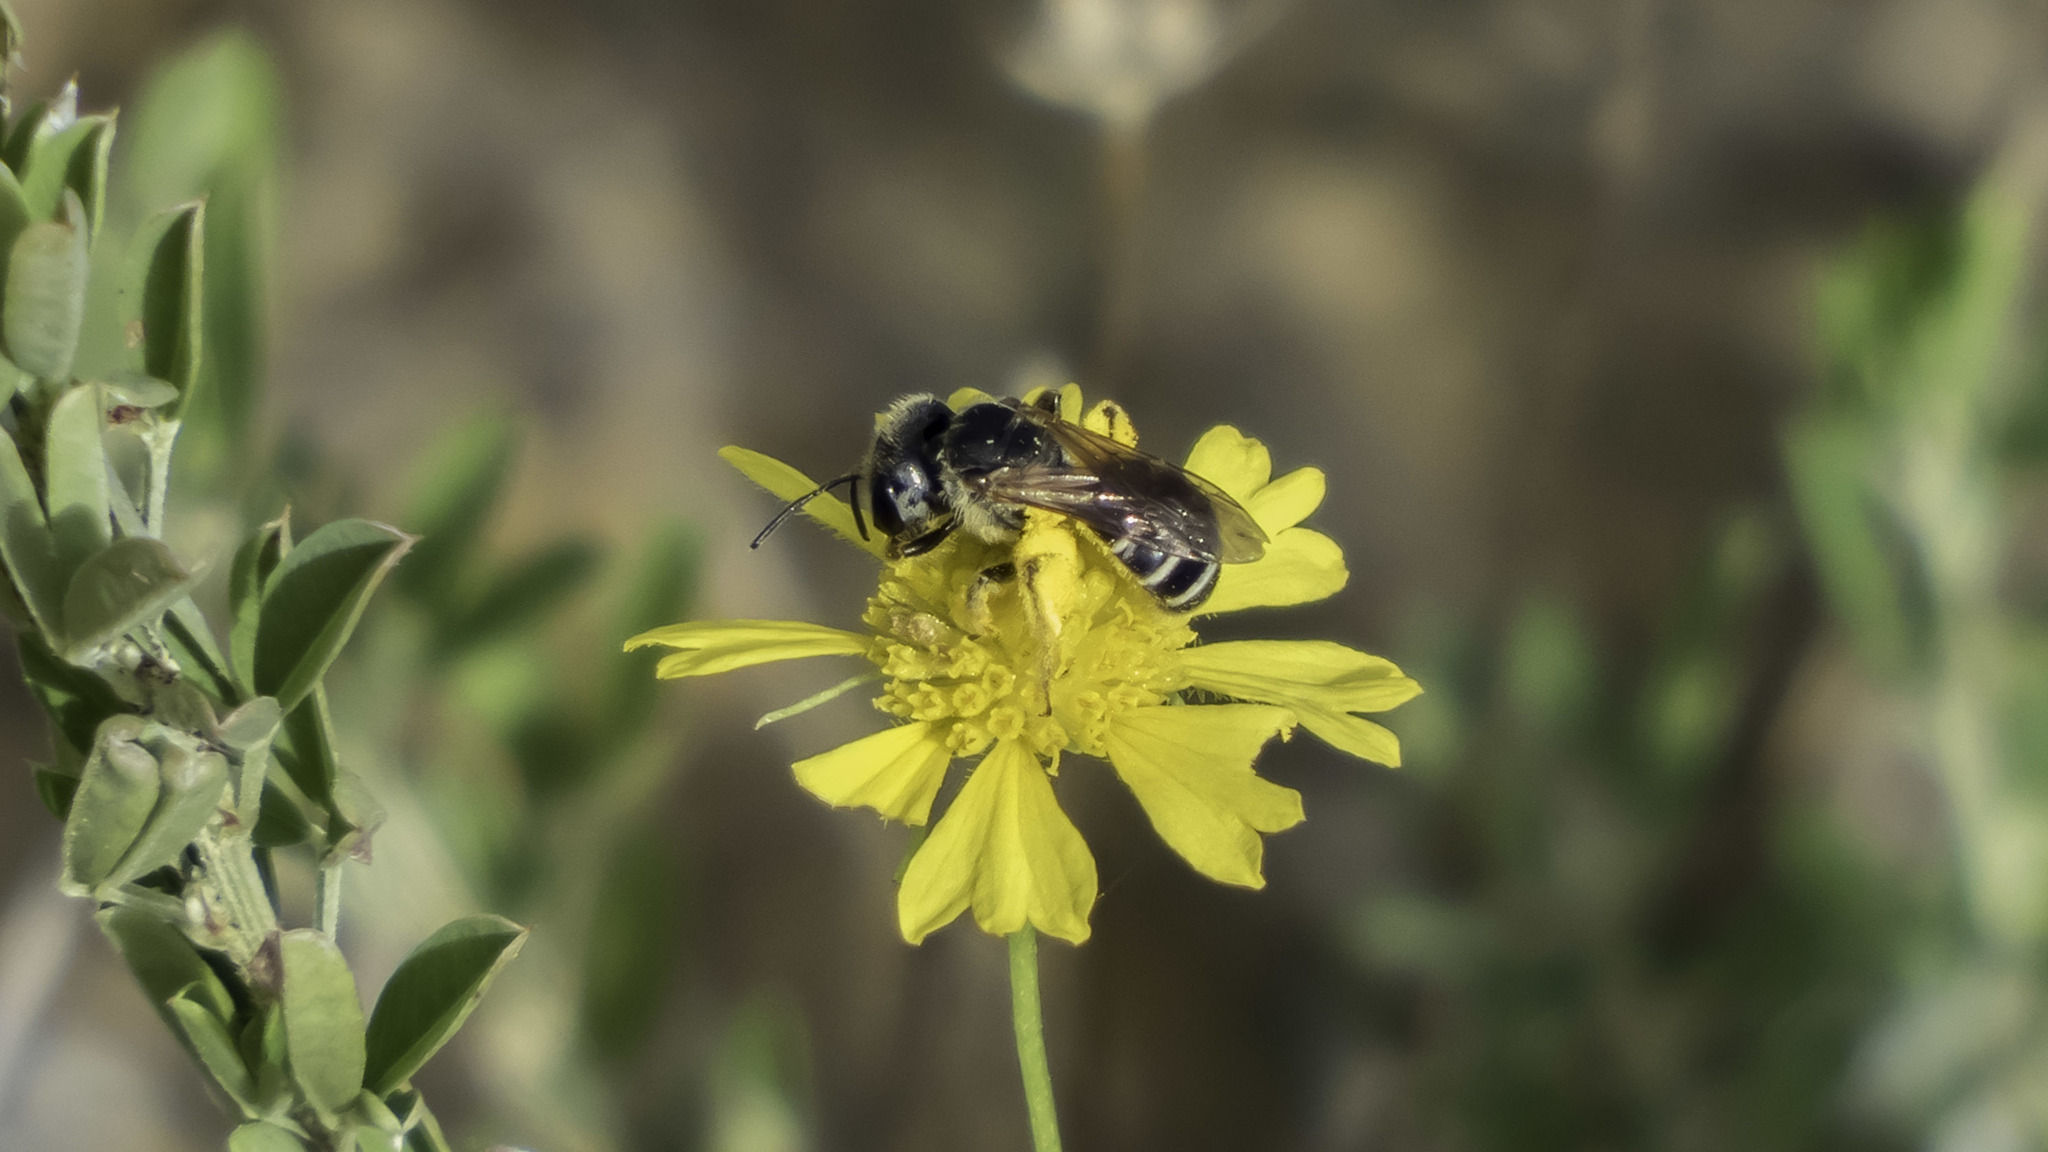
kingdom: Animalia
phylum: Arthropoda
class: Insecta
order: Hymenoptera
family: Halictidae
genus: Halictus
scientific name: Halictus ligatus
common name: Ligated furrow bee
